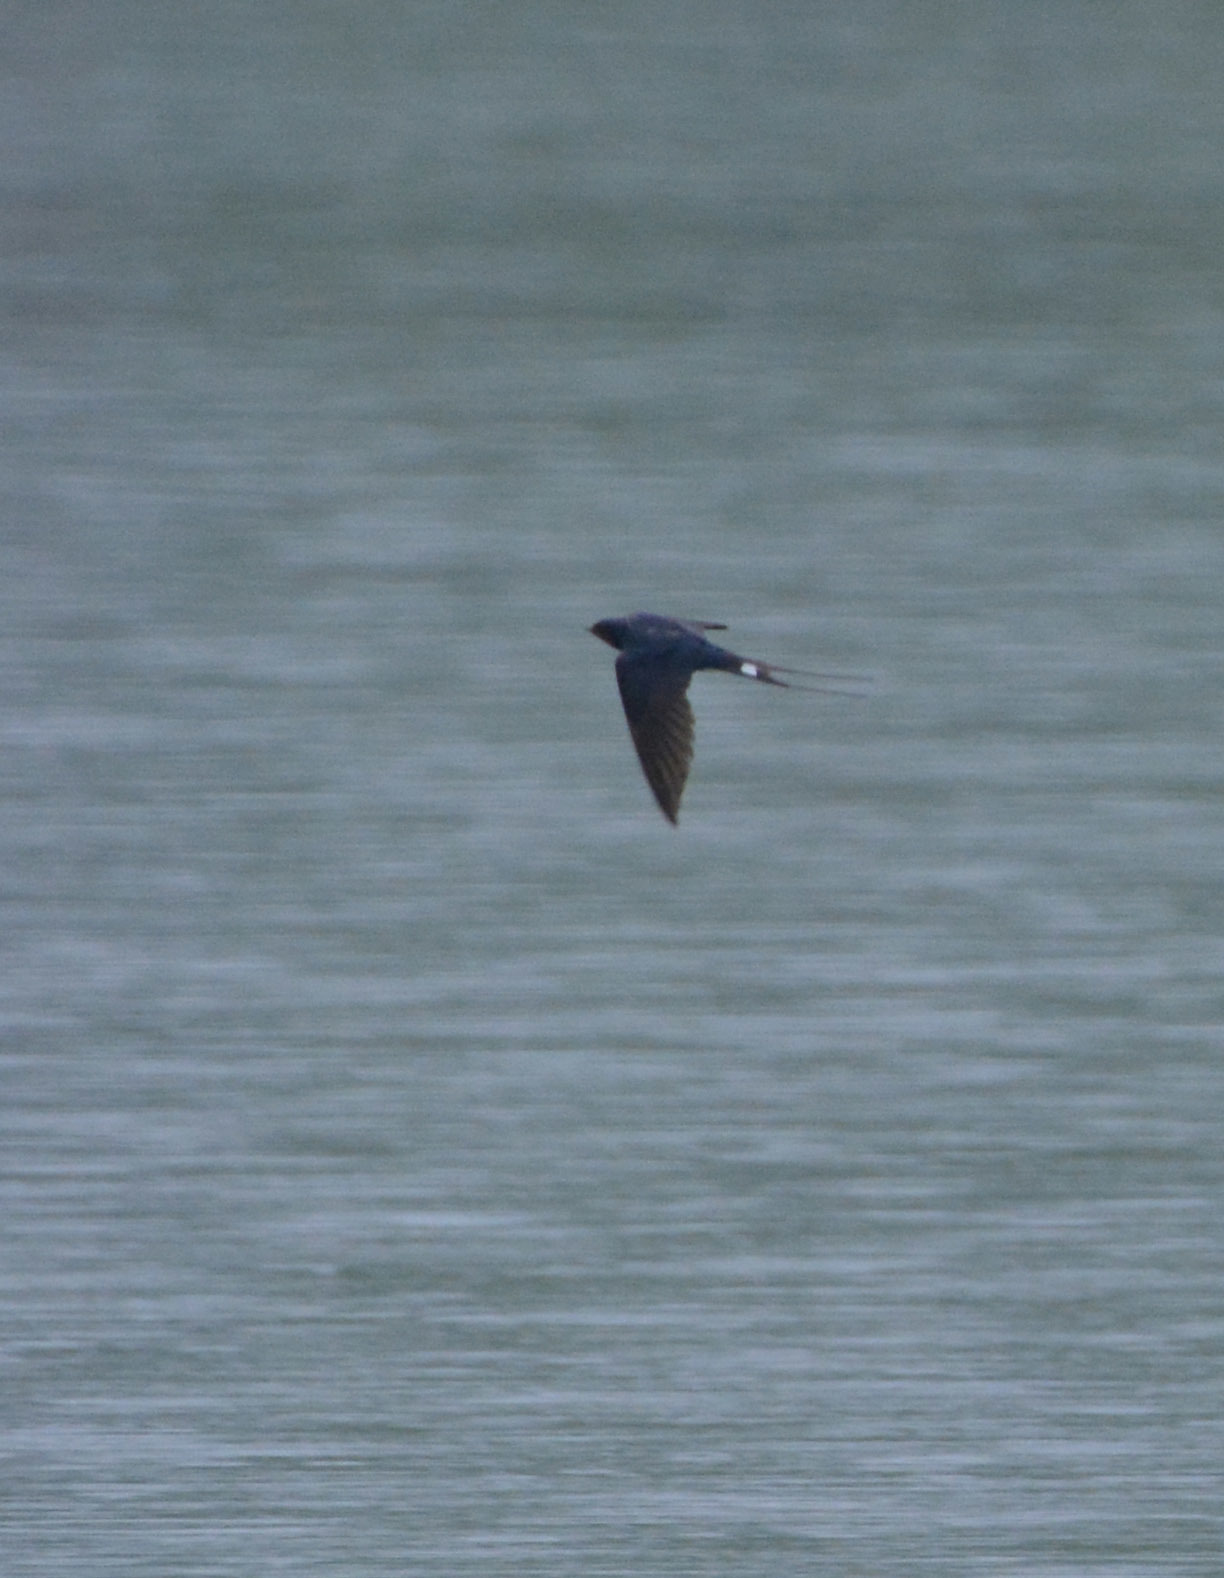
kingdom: Animalia
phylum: Chordata
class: Aves
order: Passeriformes
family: Hirundinidae
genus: Hirundo
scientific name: Hirundo rustica
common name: Barn swallow
